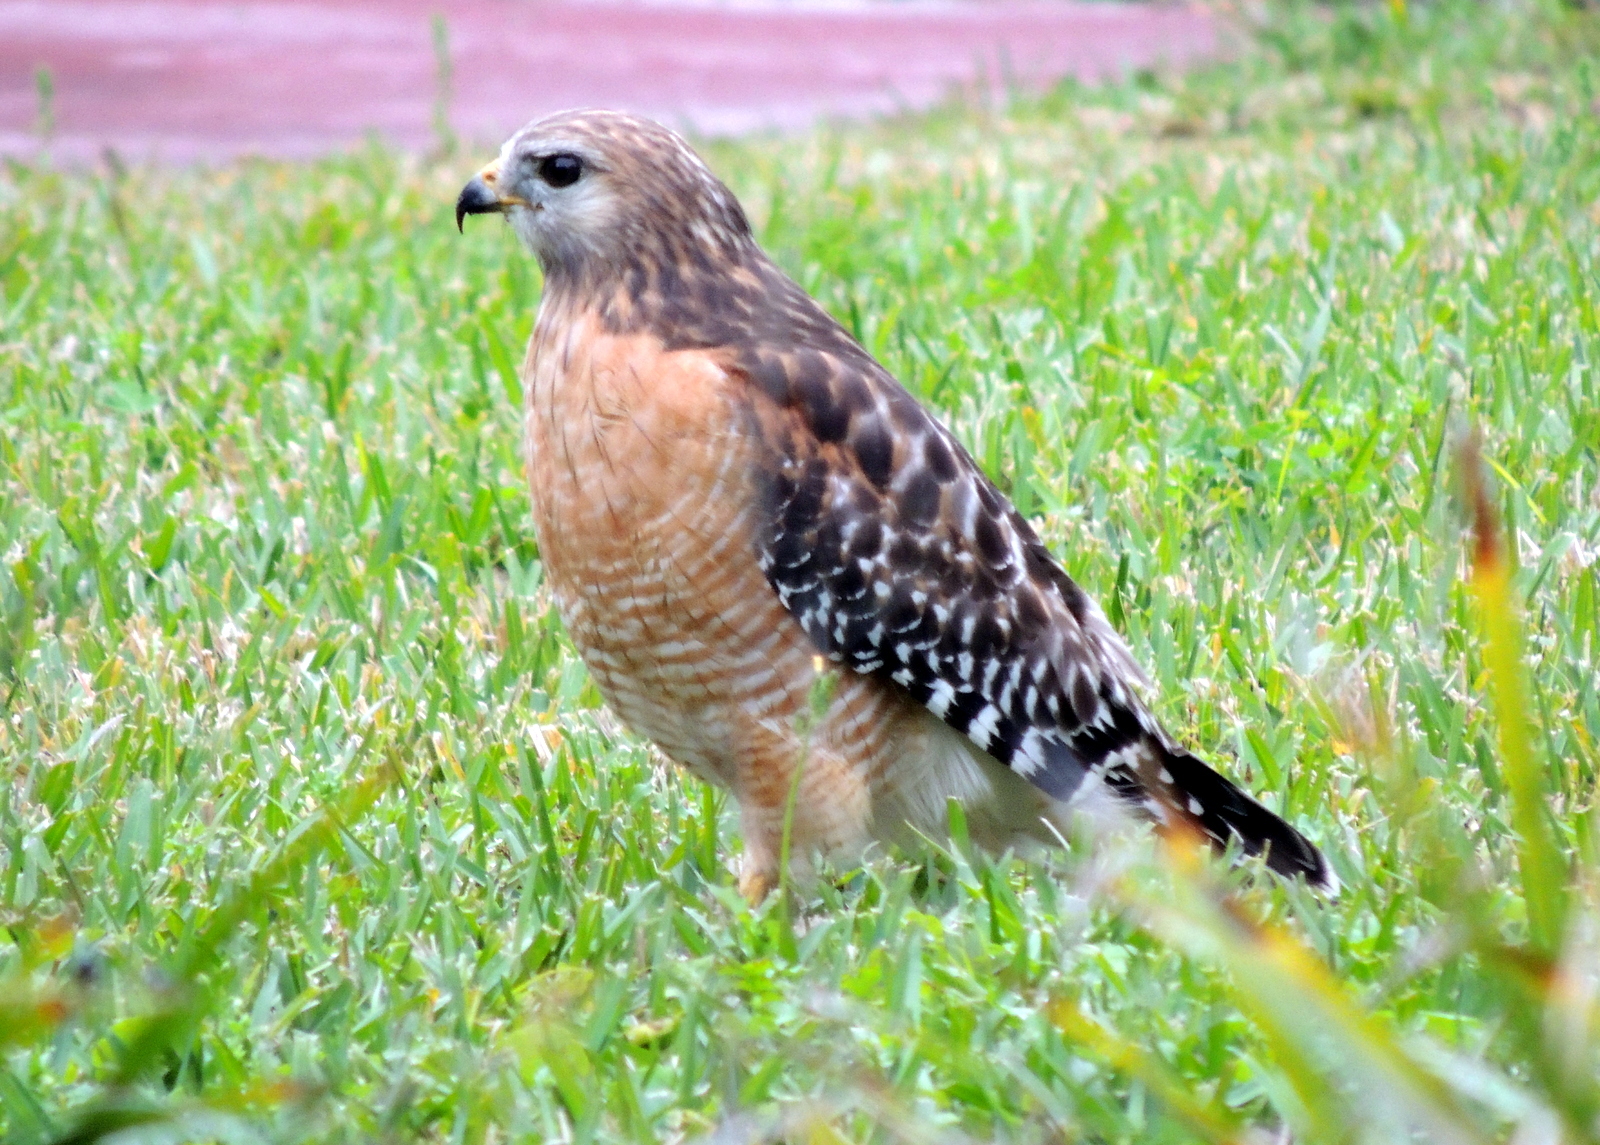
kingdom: Animalia
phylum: Chordata
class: Aves
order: Accipitriformes
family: Accipitridae
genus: Buteo
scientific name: Buteo lineatus
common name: Red-shouldered hawk
